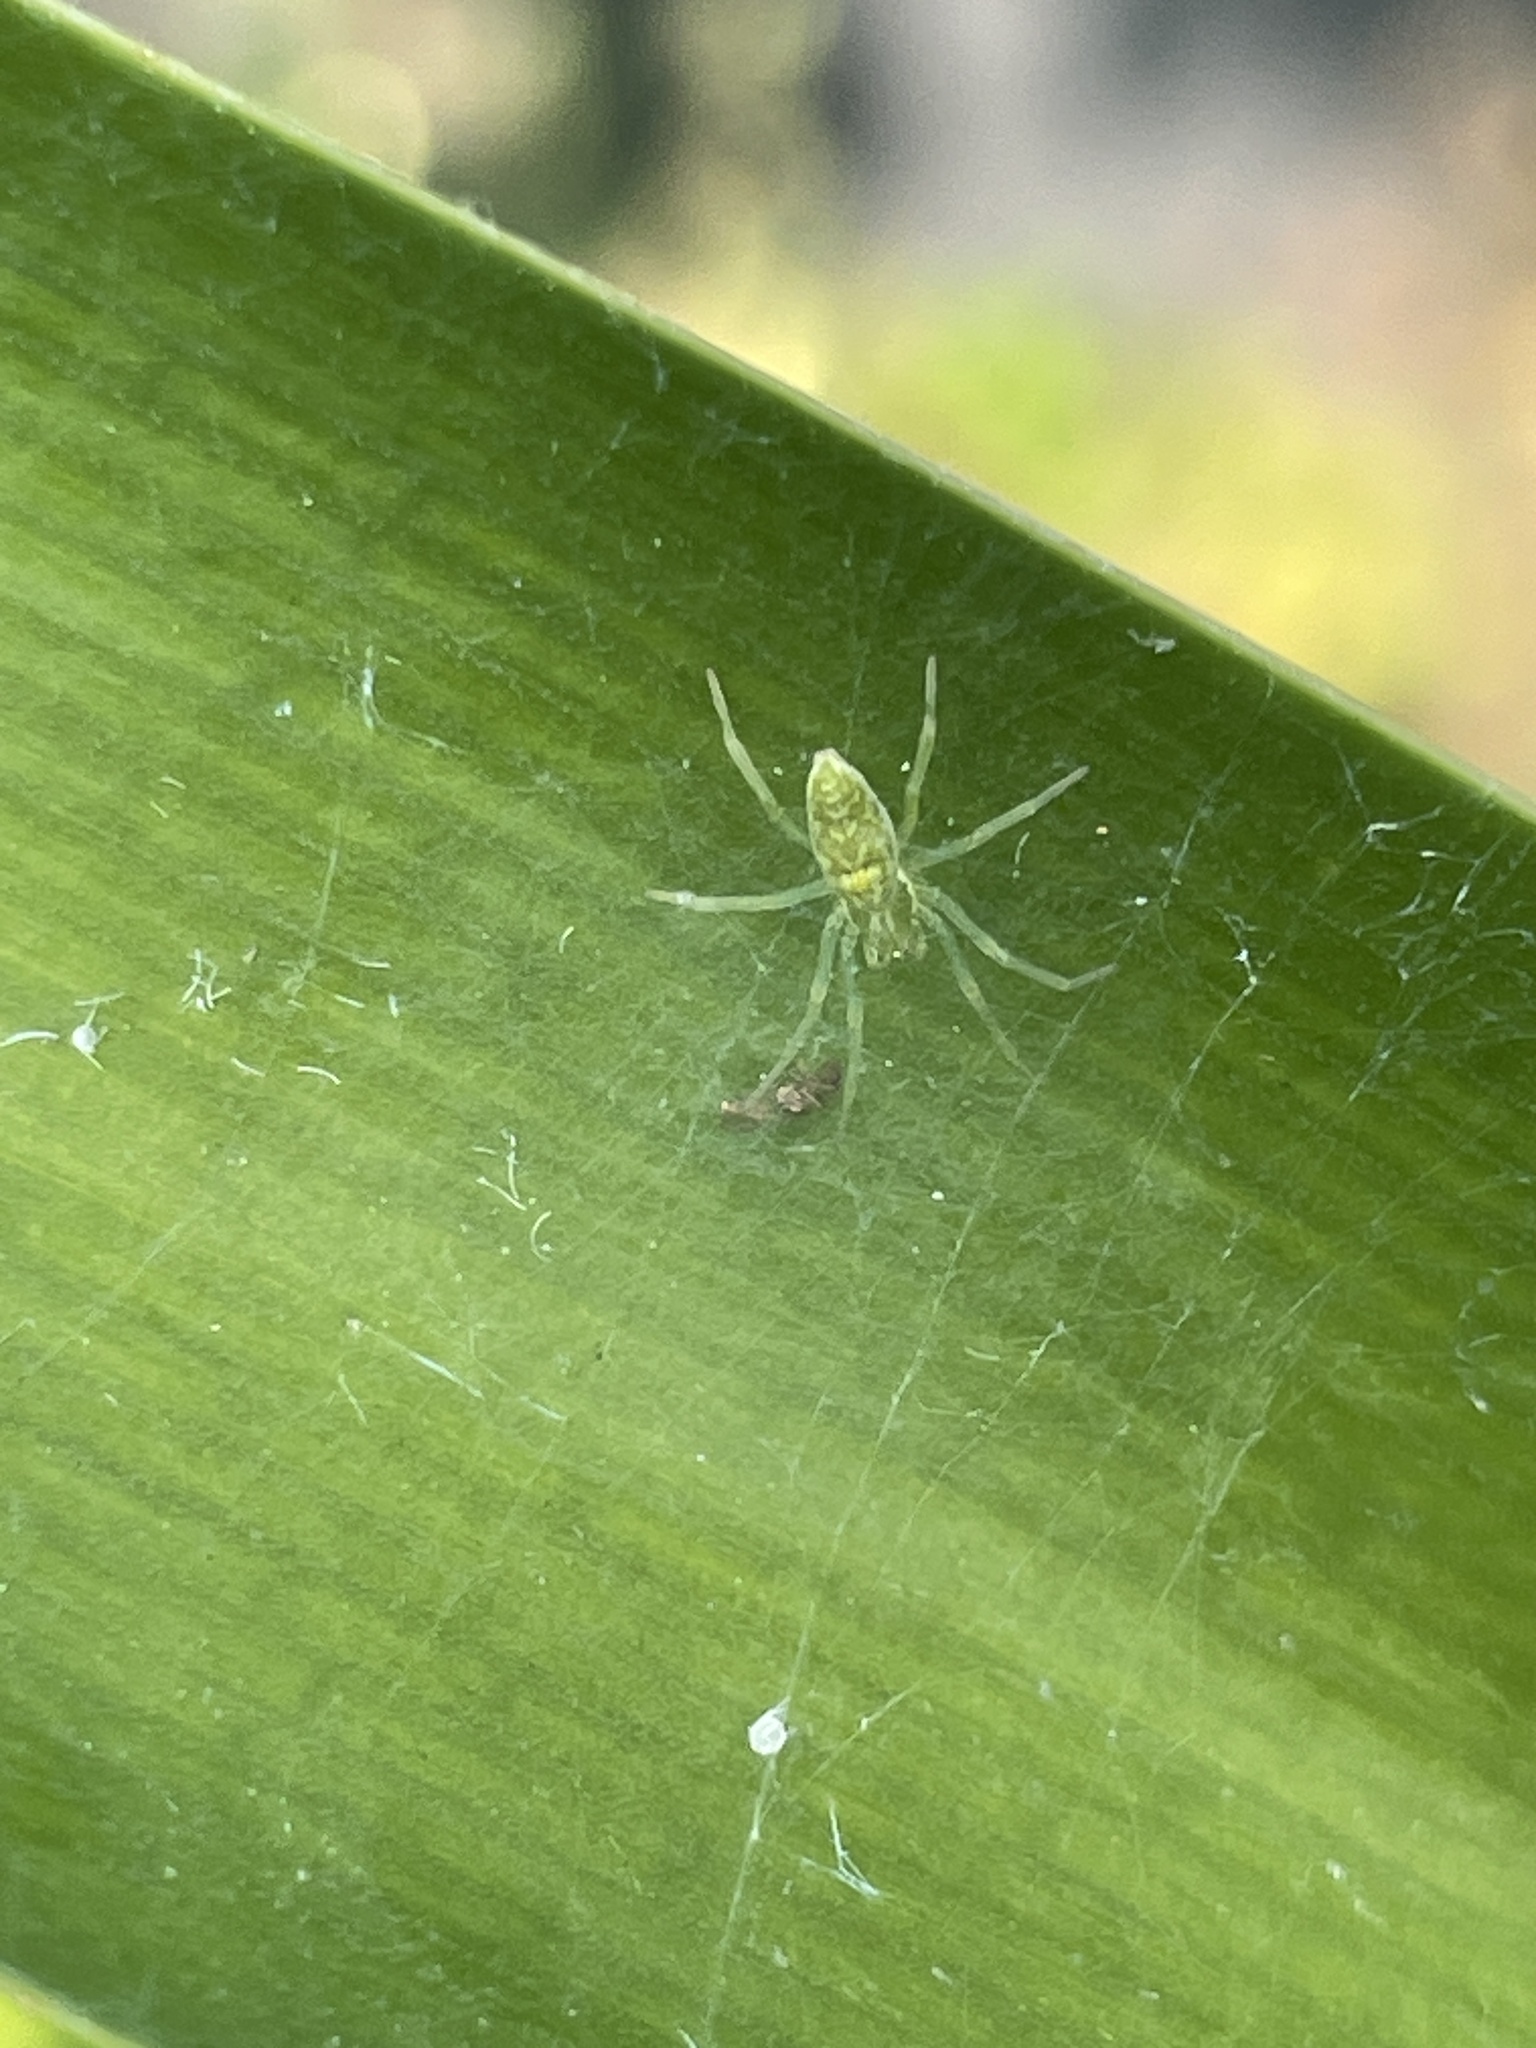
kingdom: Animalia
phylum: Arthropoda
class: Arachnida
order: Araneae
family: Dictynidae
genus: Nigma
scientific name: Nigma walckenaeri
